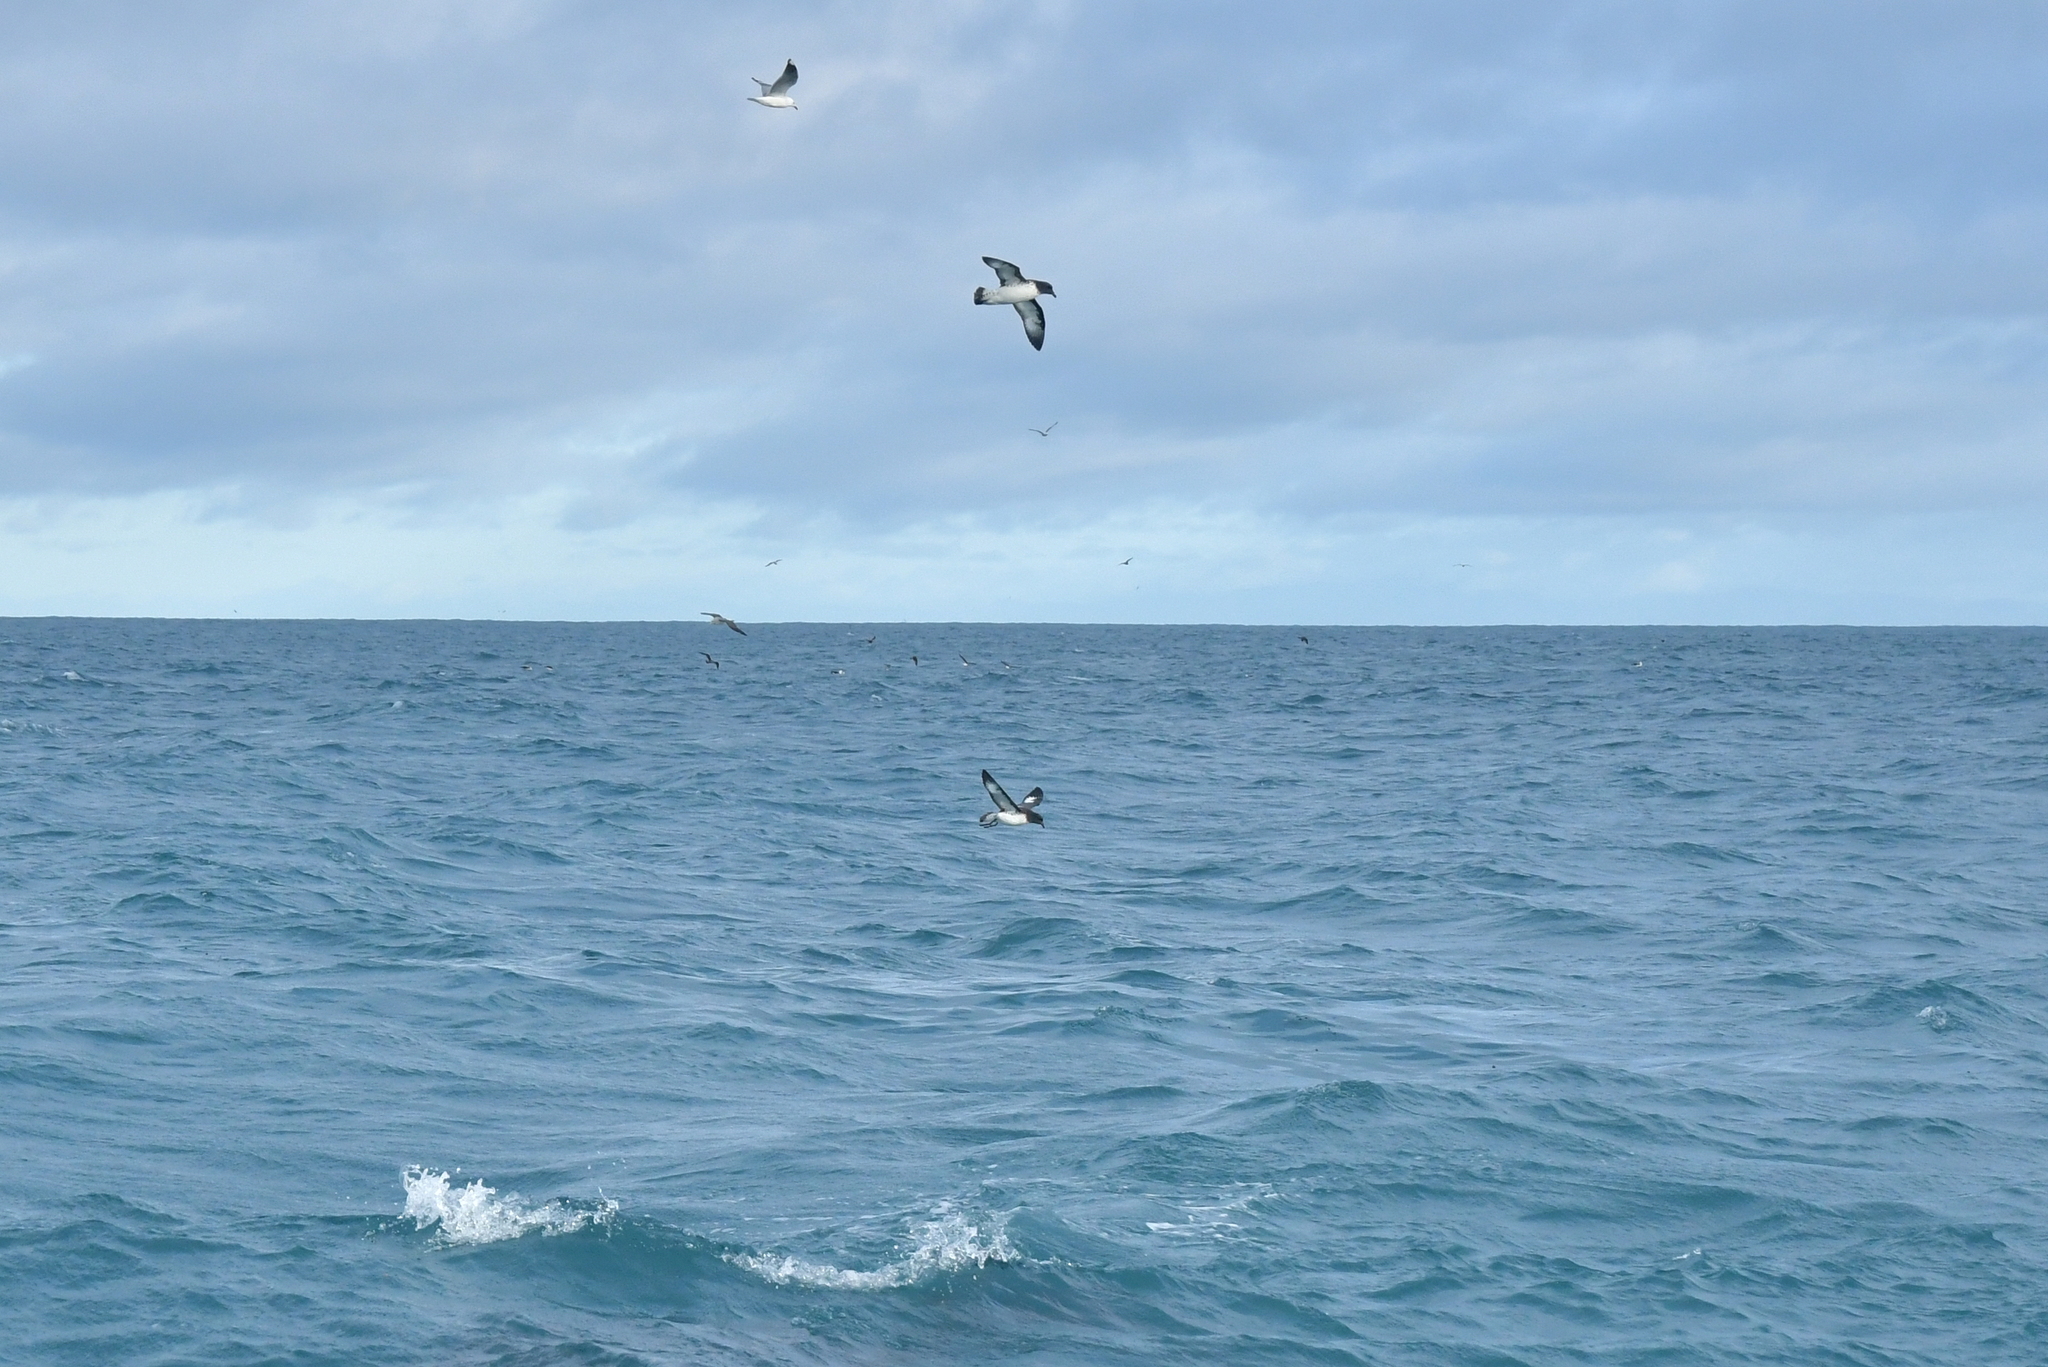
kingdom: Animalia
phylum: Chordata
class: Aves
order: Procellariiformes
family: Procellariidae
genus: Daption
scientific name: Daption capense
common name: Cape petrel
